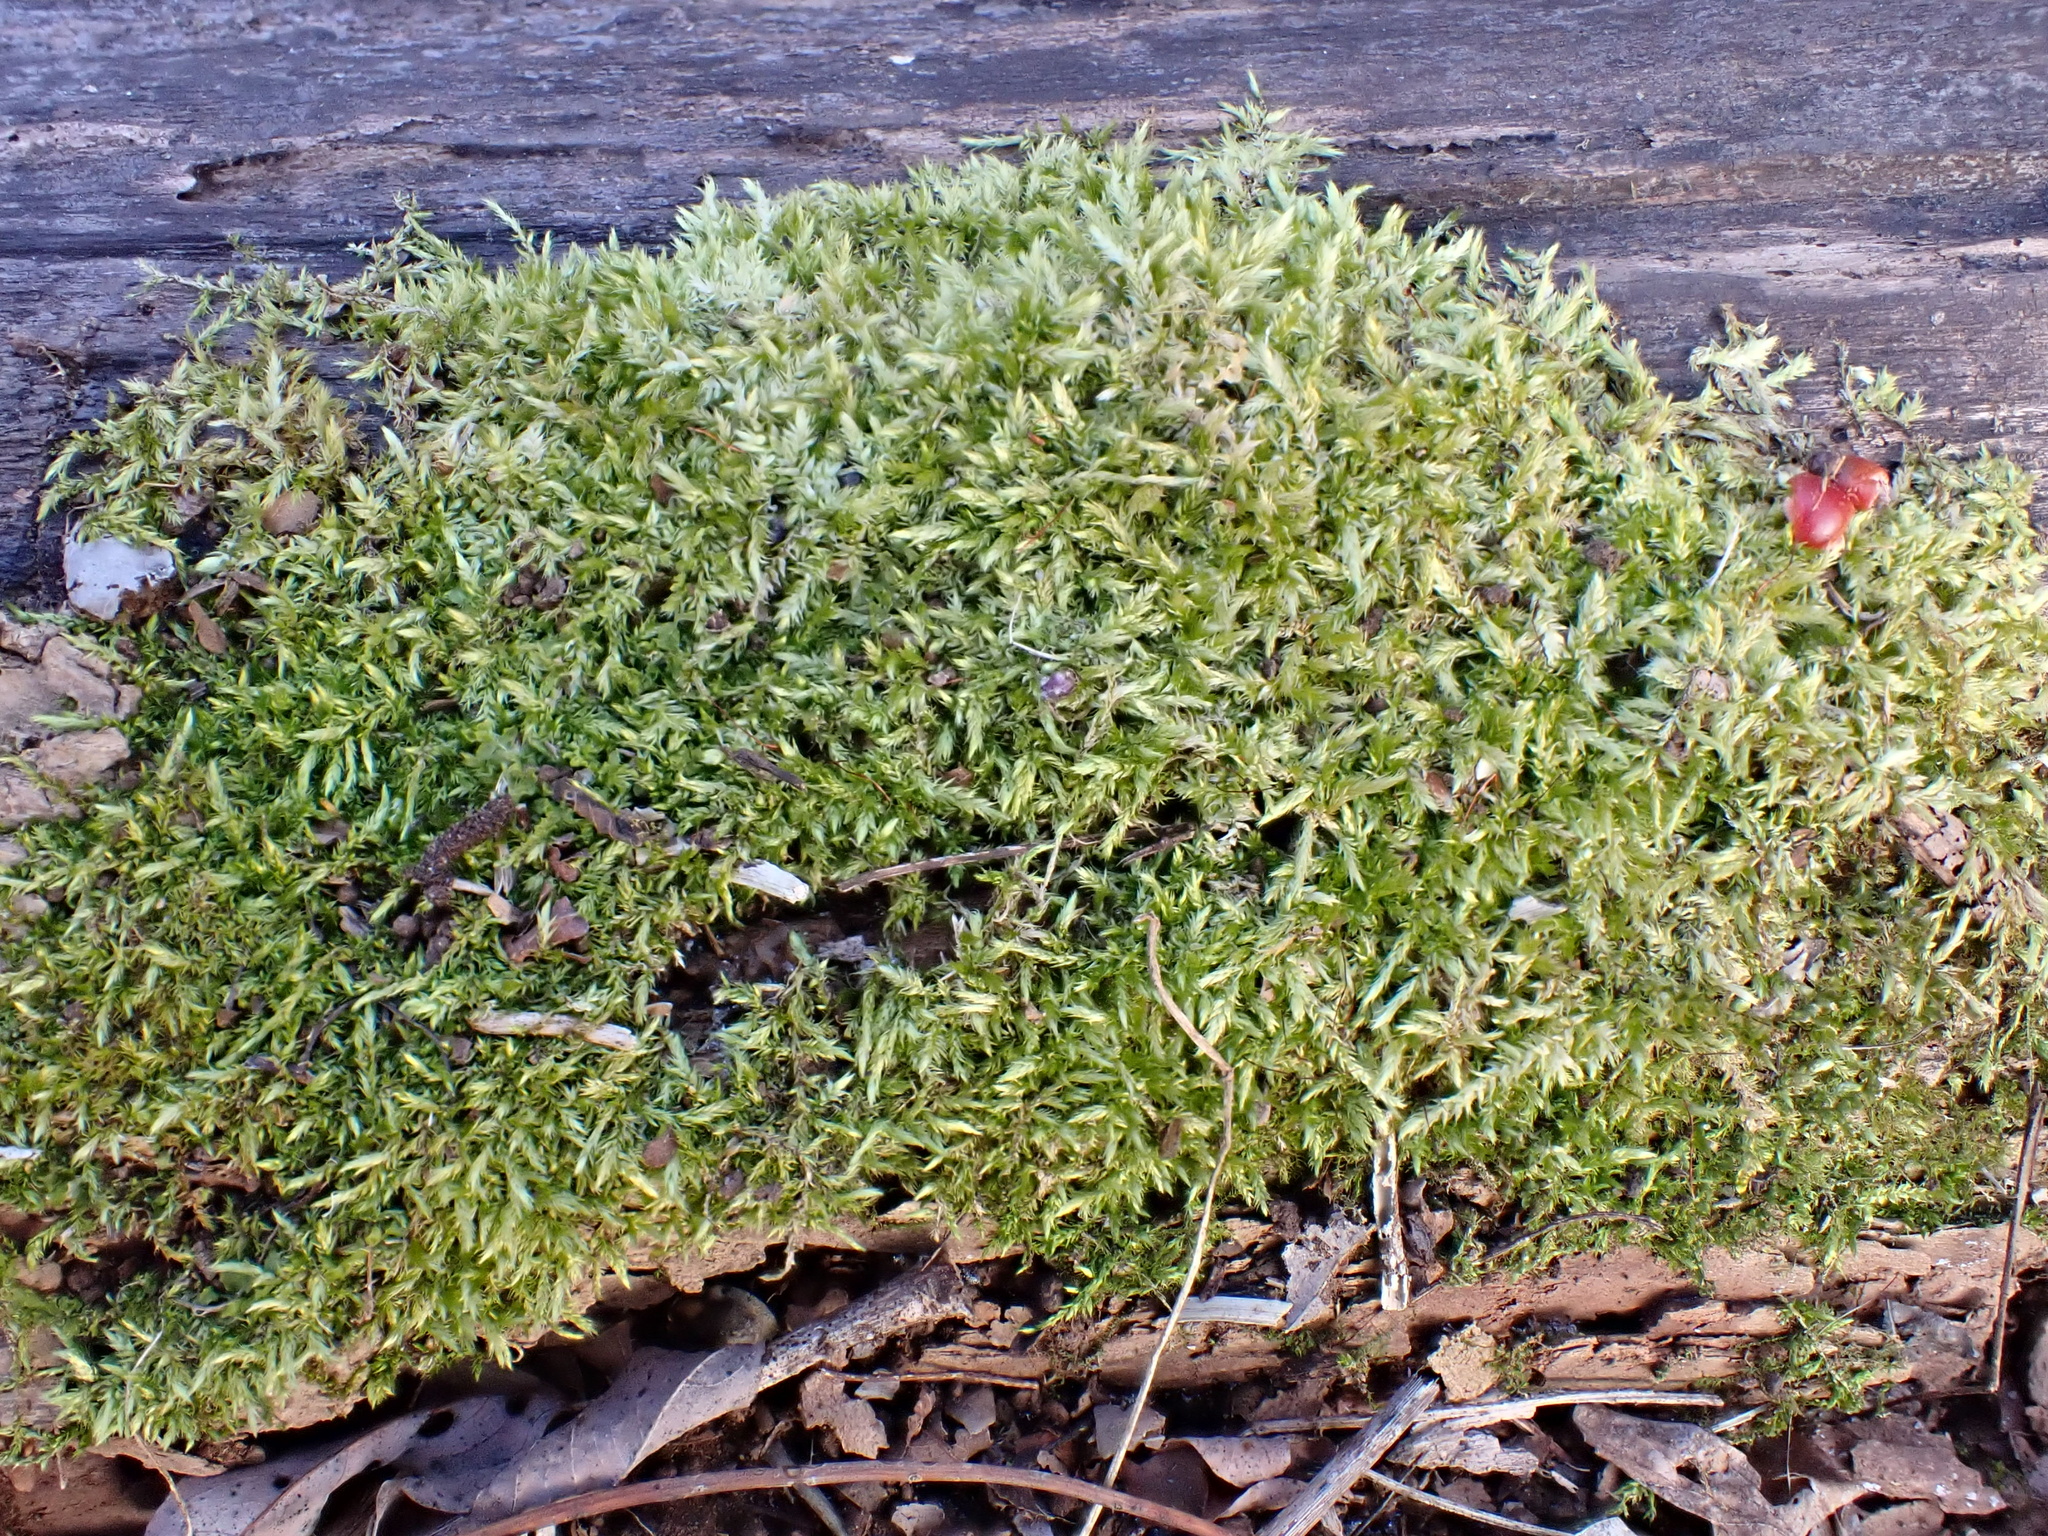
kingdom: Plantae
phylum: Bryophyta
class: Bryopsida
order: Hypnales
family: Entodontaceae
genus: Entodon
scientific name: Entodon cladorrhizans
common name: Flat-stemmed entodon moss
